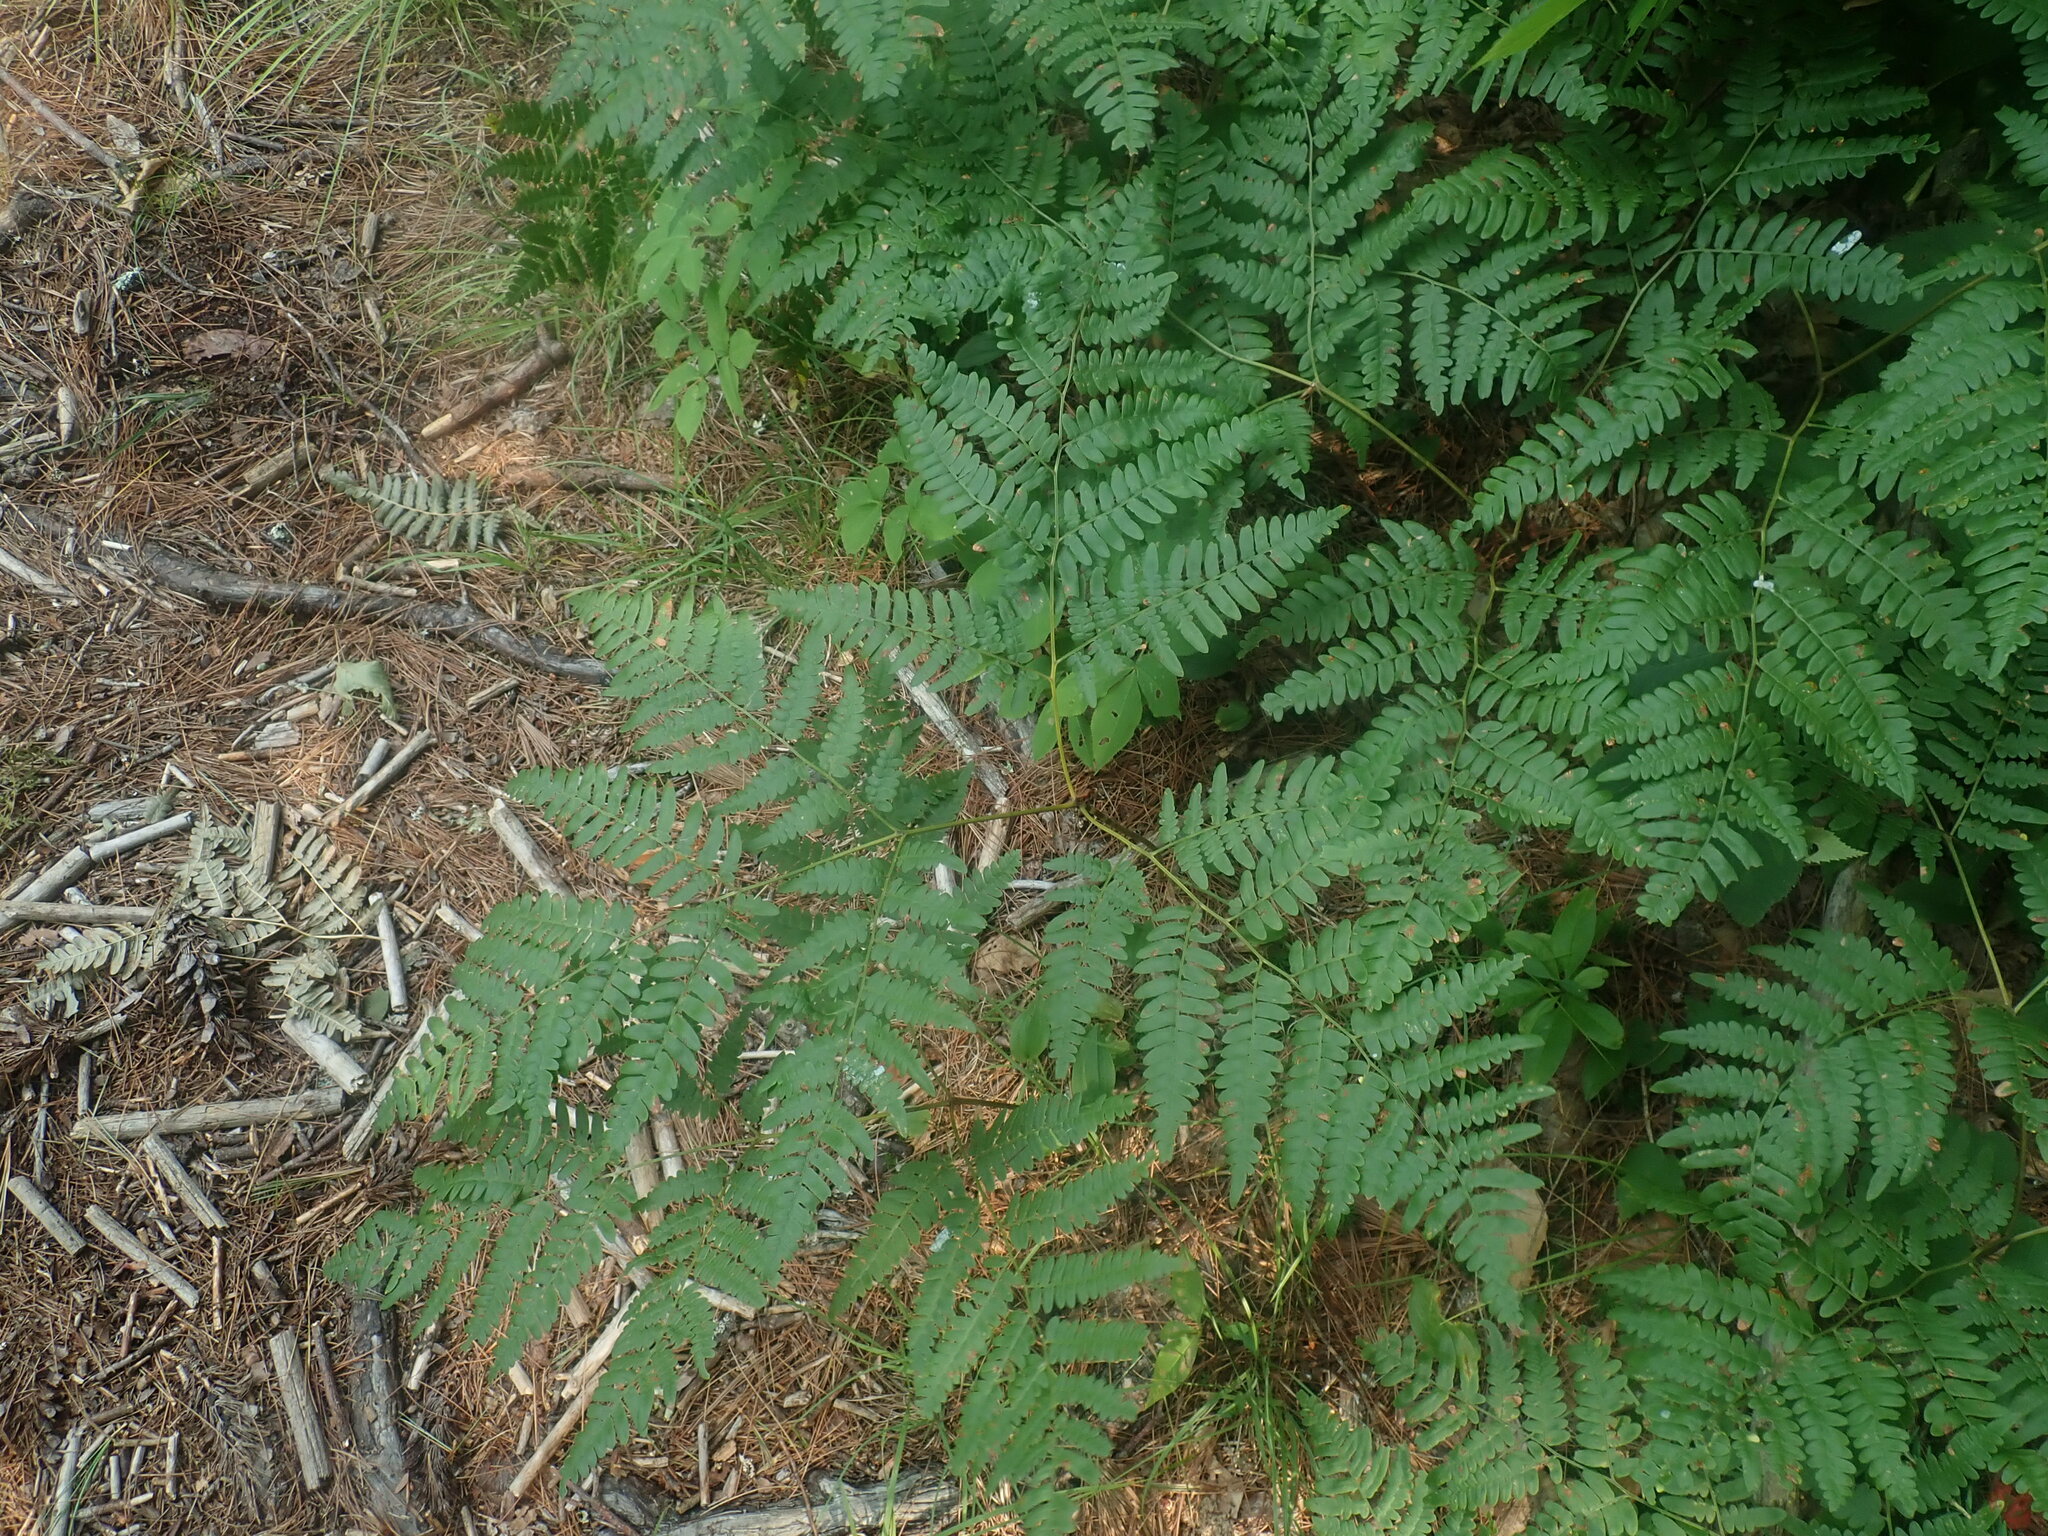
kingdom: Plantae
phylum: Tracheophyta
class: Polypodiopsida
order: Polypodiales
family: Dennstaedtiaceae
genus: Pteridium
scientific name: Pteridium aquilinum
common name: Bracken
